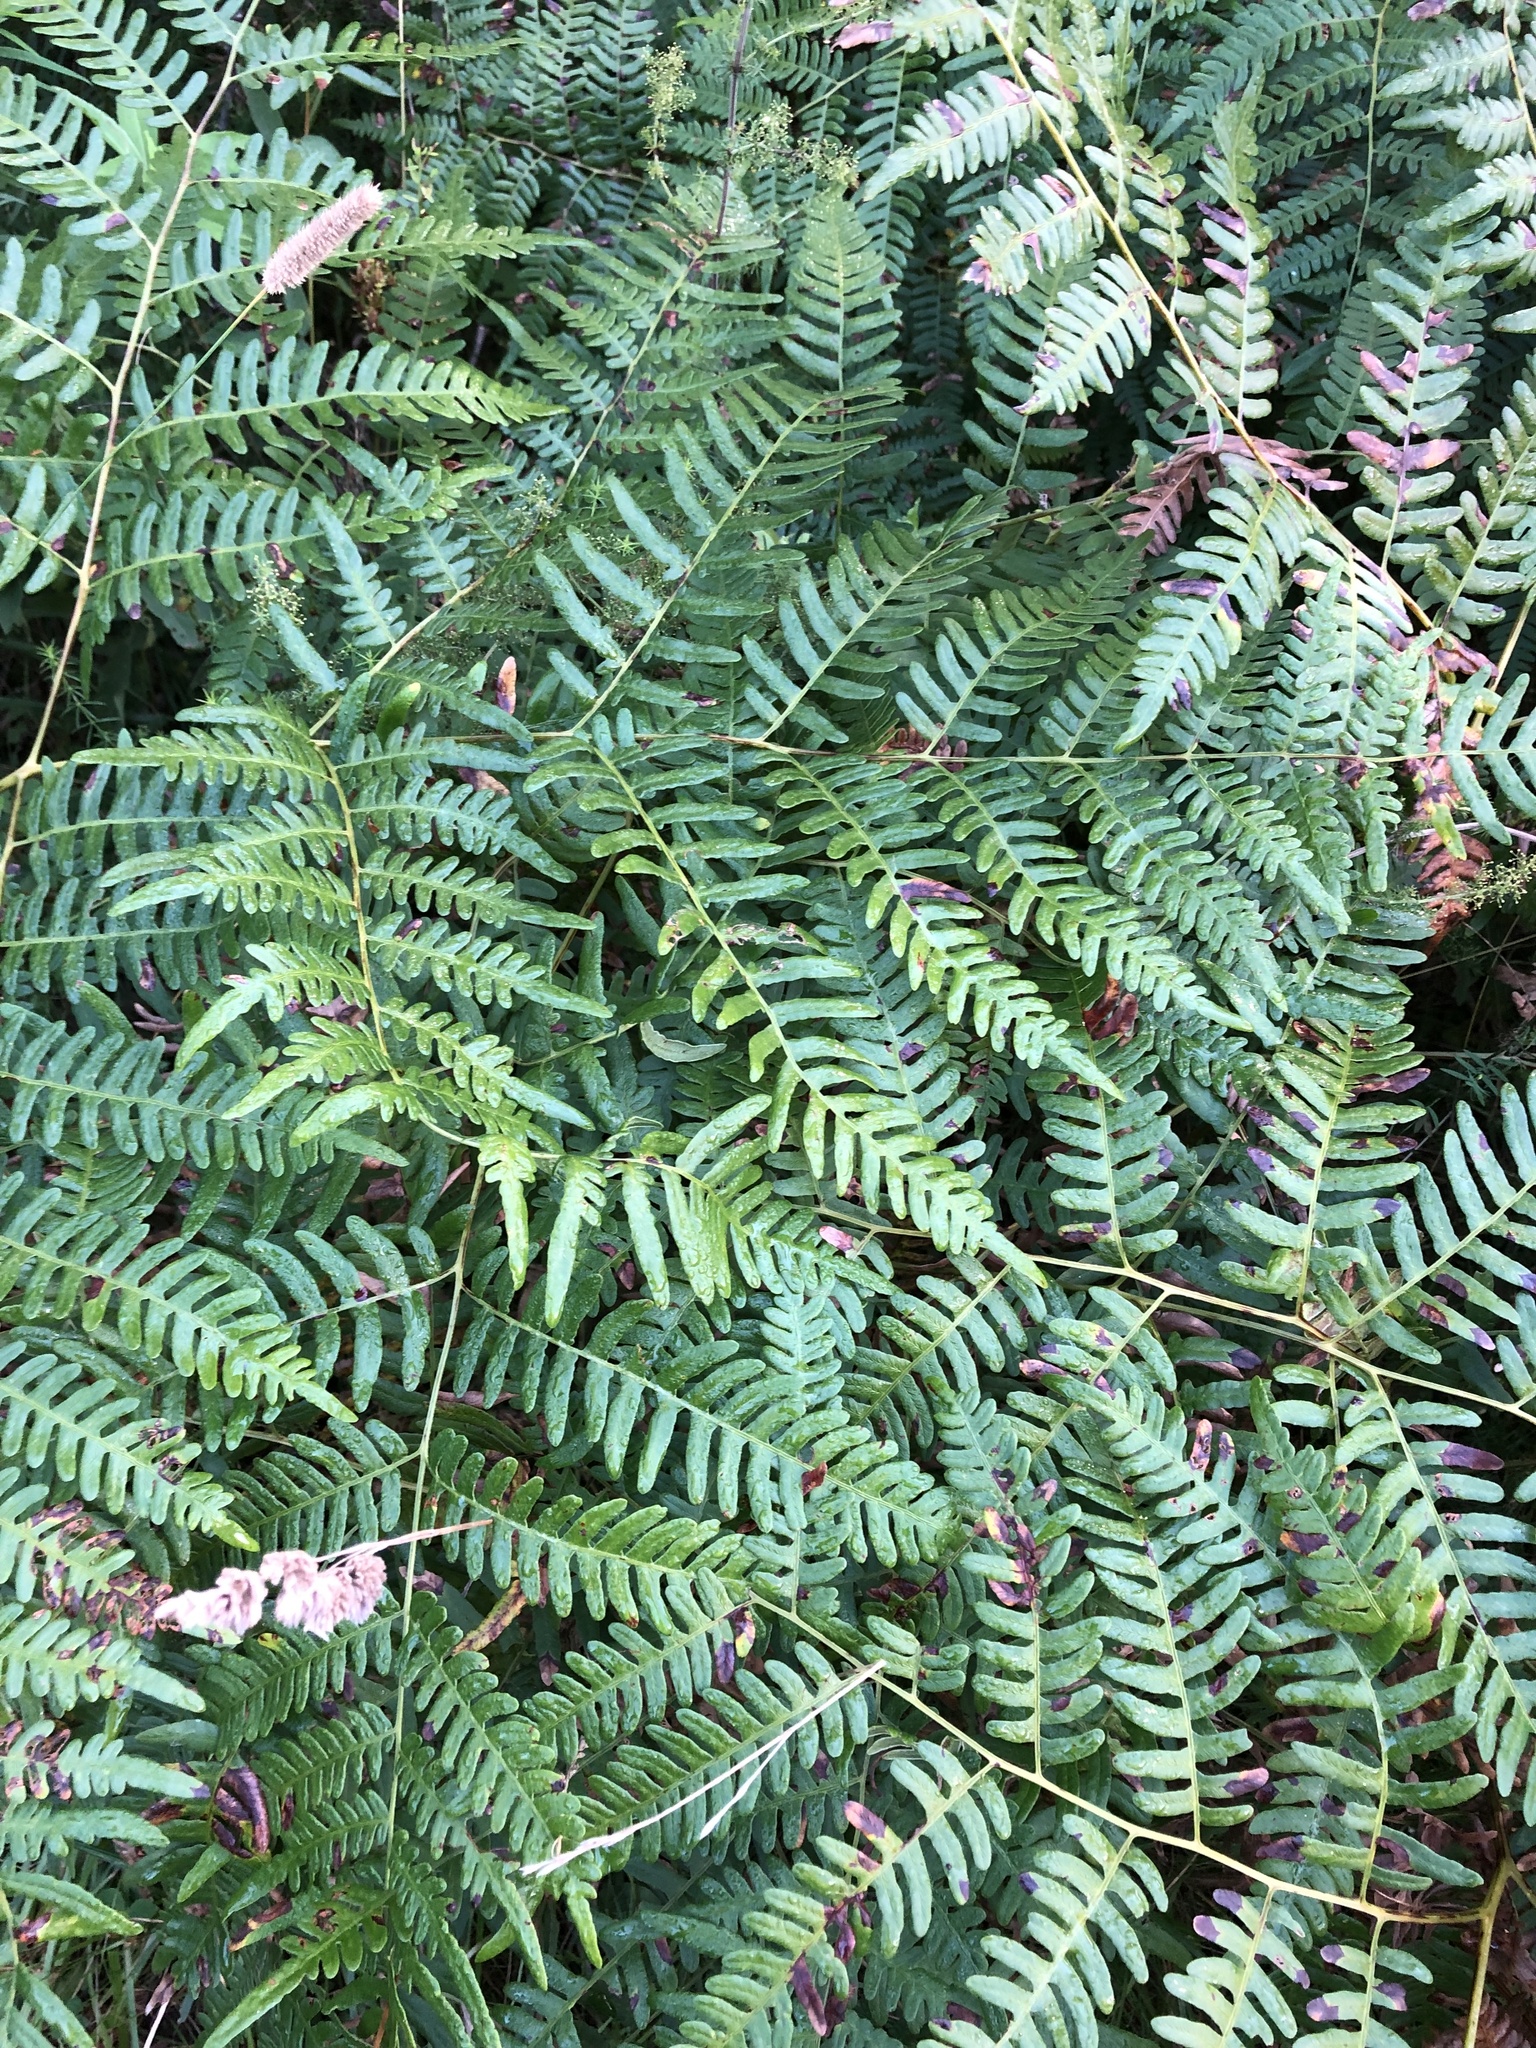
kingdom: Plantae
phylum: Tracheophyta
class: Polypodiopsida
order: Polypodiales
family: Dennstaedtiaceae
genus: Pteridium
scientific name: Pteridium aquilinum
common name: Bracken
